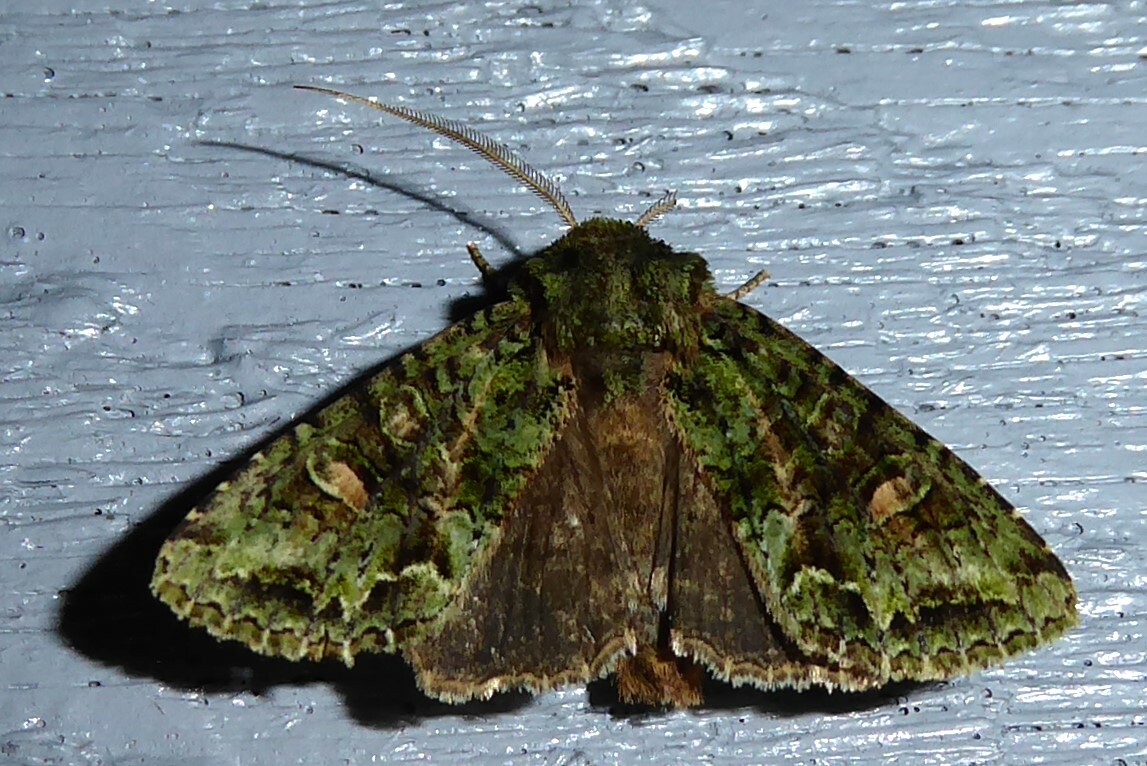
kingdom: Animalia
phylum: Arthropoda
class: Insecta
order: Lepidoptera
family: Noctuidae
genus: Ichneutica
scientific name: Ichneutica
